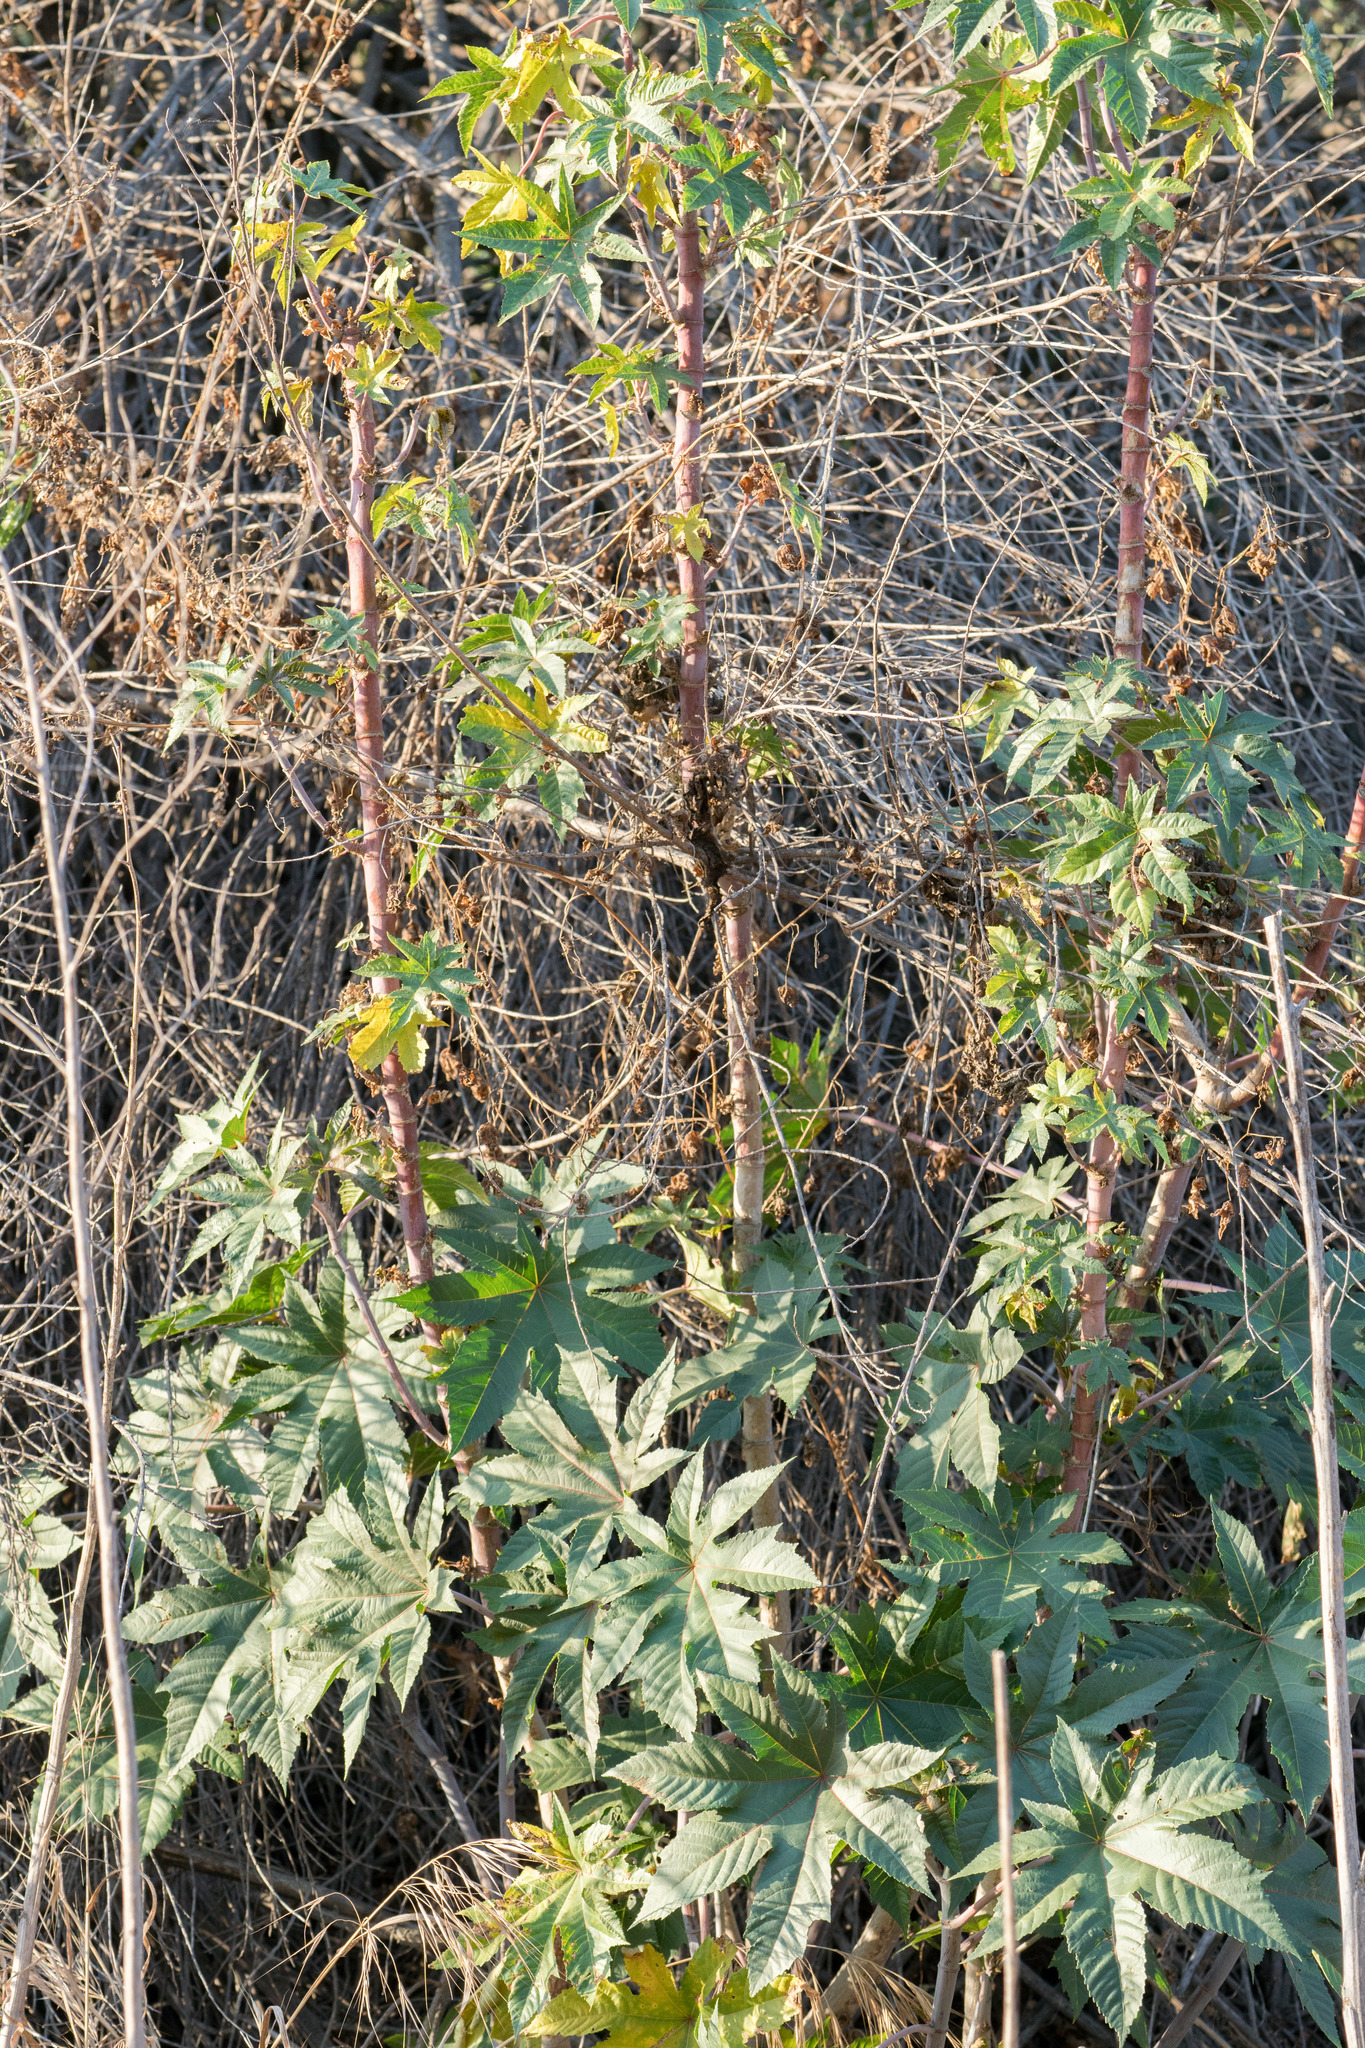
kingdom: Plantae
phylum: Tracheophyta
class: Magnoliopsida
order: Malpighiales
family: Euphorbiaceae
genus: Ricinus
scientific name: Ricinus communis
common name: Castor-oil-plant
